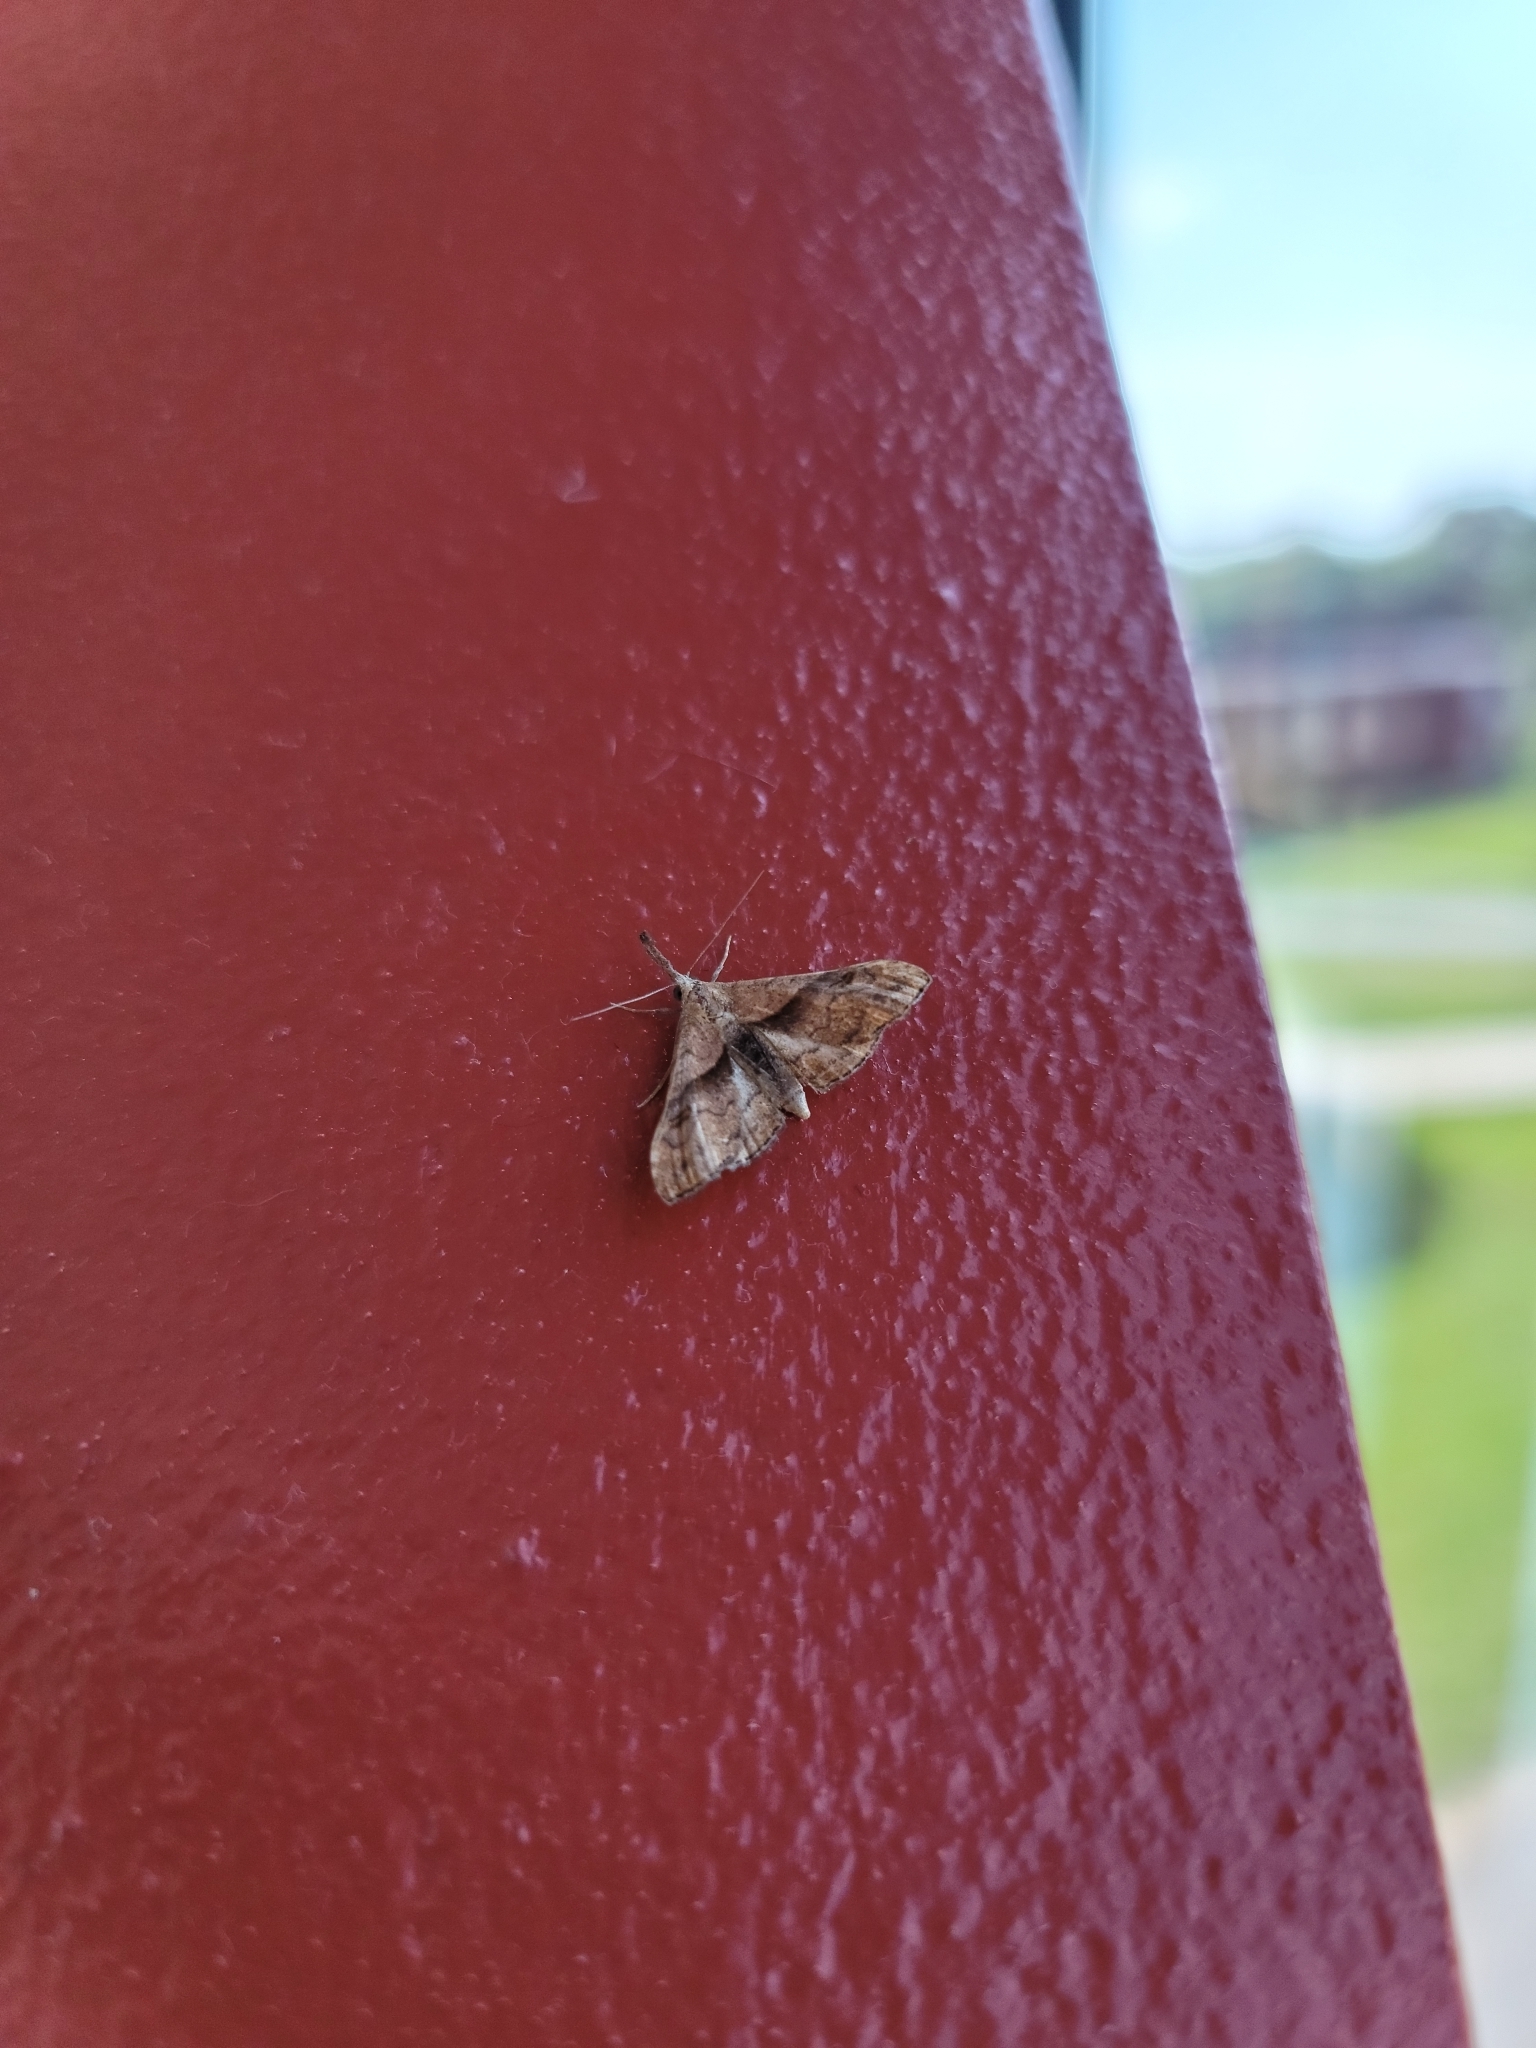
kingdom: Animalia
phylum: Arthropoda
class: Insecta
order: Lepidoptera
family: Erebidae
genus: Palthis
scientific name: Palthis angulalis
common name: Dark-spotted palthis moth
